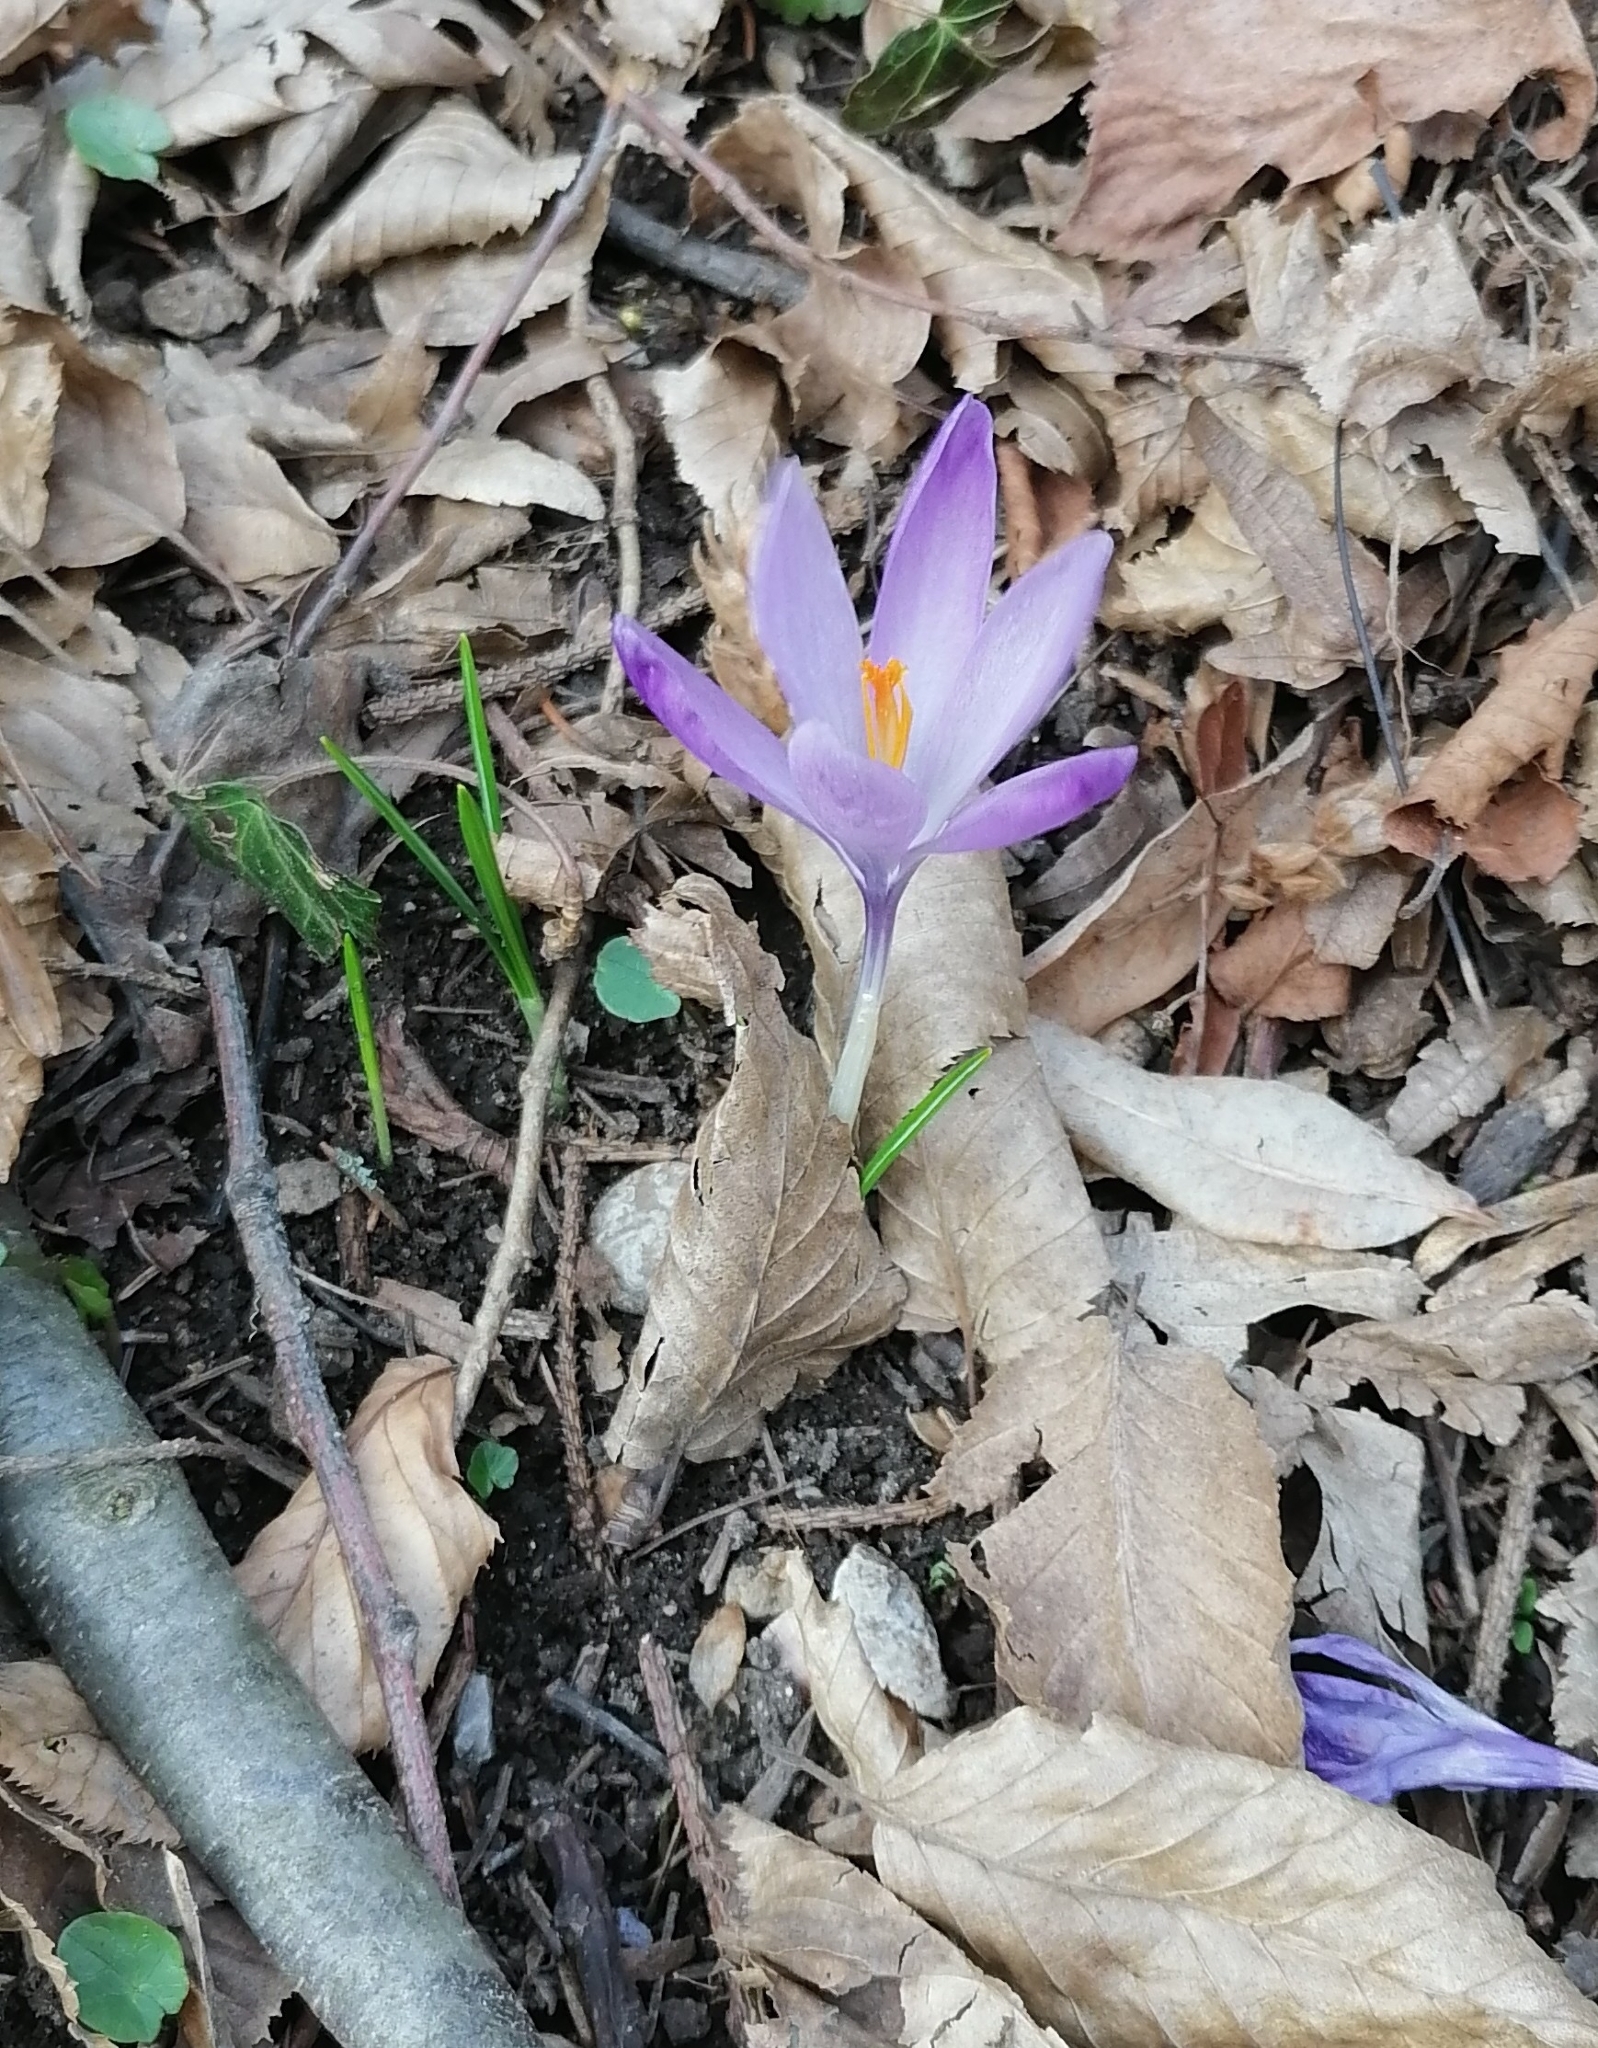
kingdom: Plantae
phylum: Tracheophyta
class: Liliopsida
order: Asparagales
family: Iridaceae
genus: Crocus
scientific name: Crocus heuffelianus
